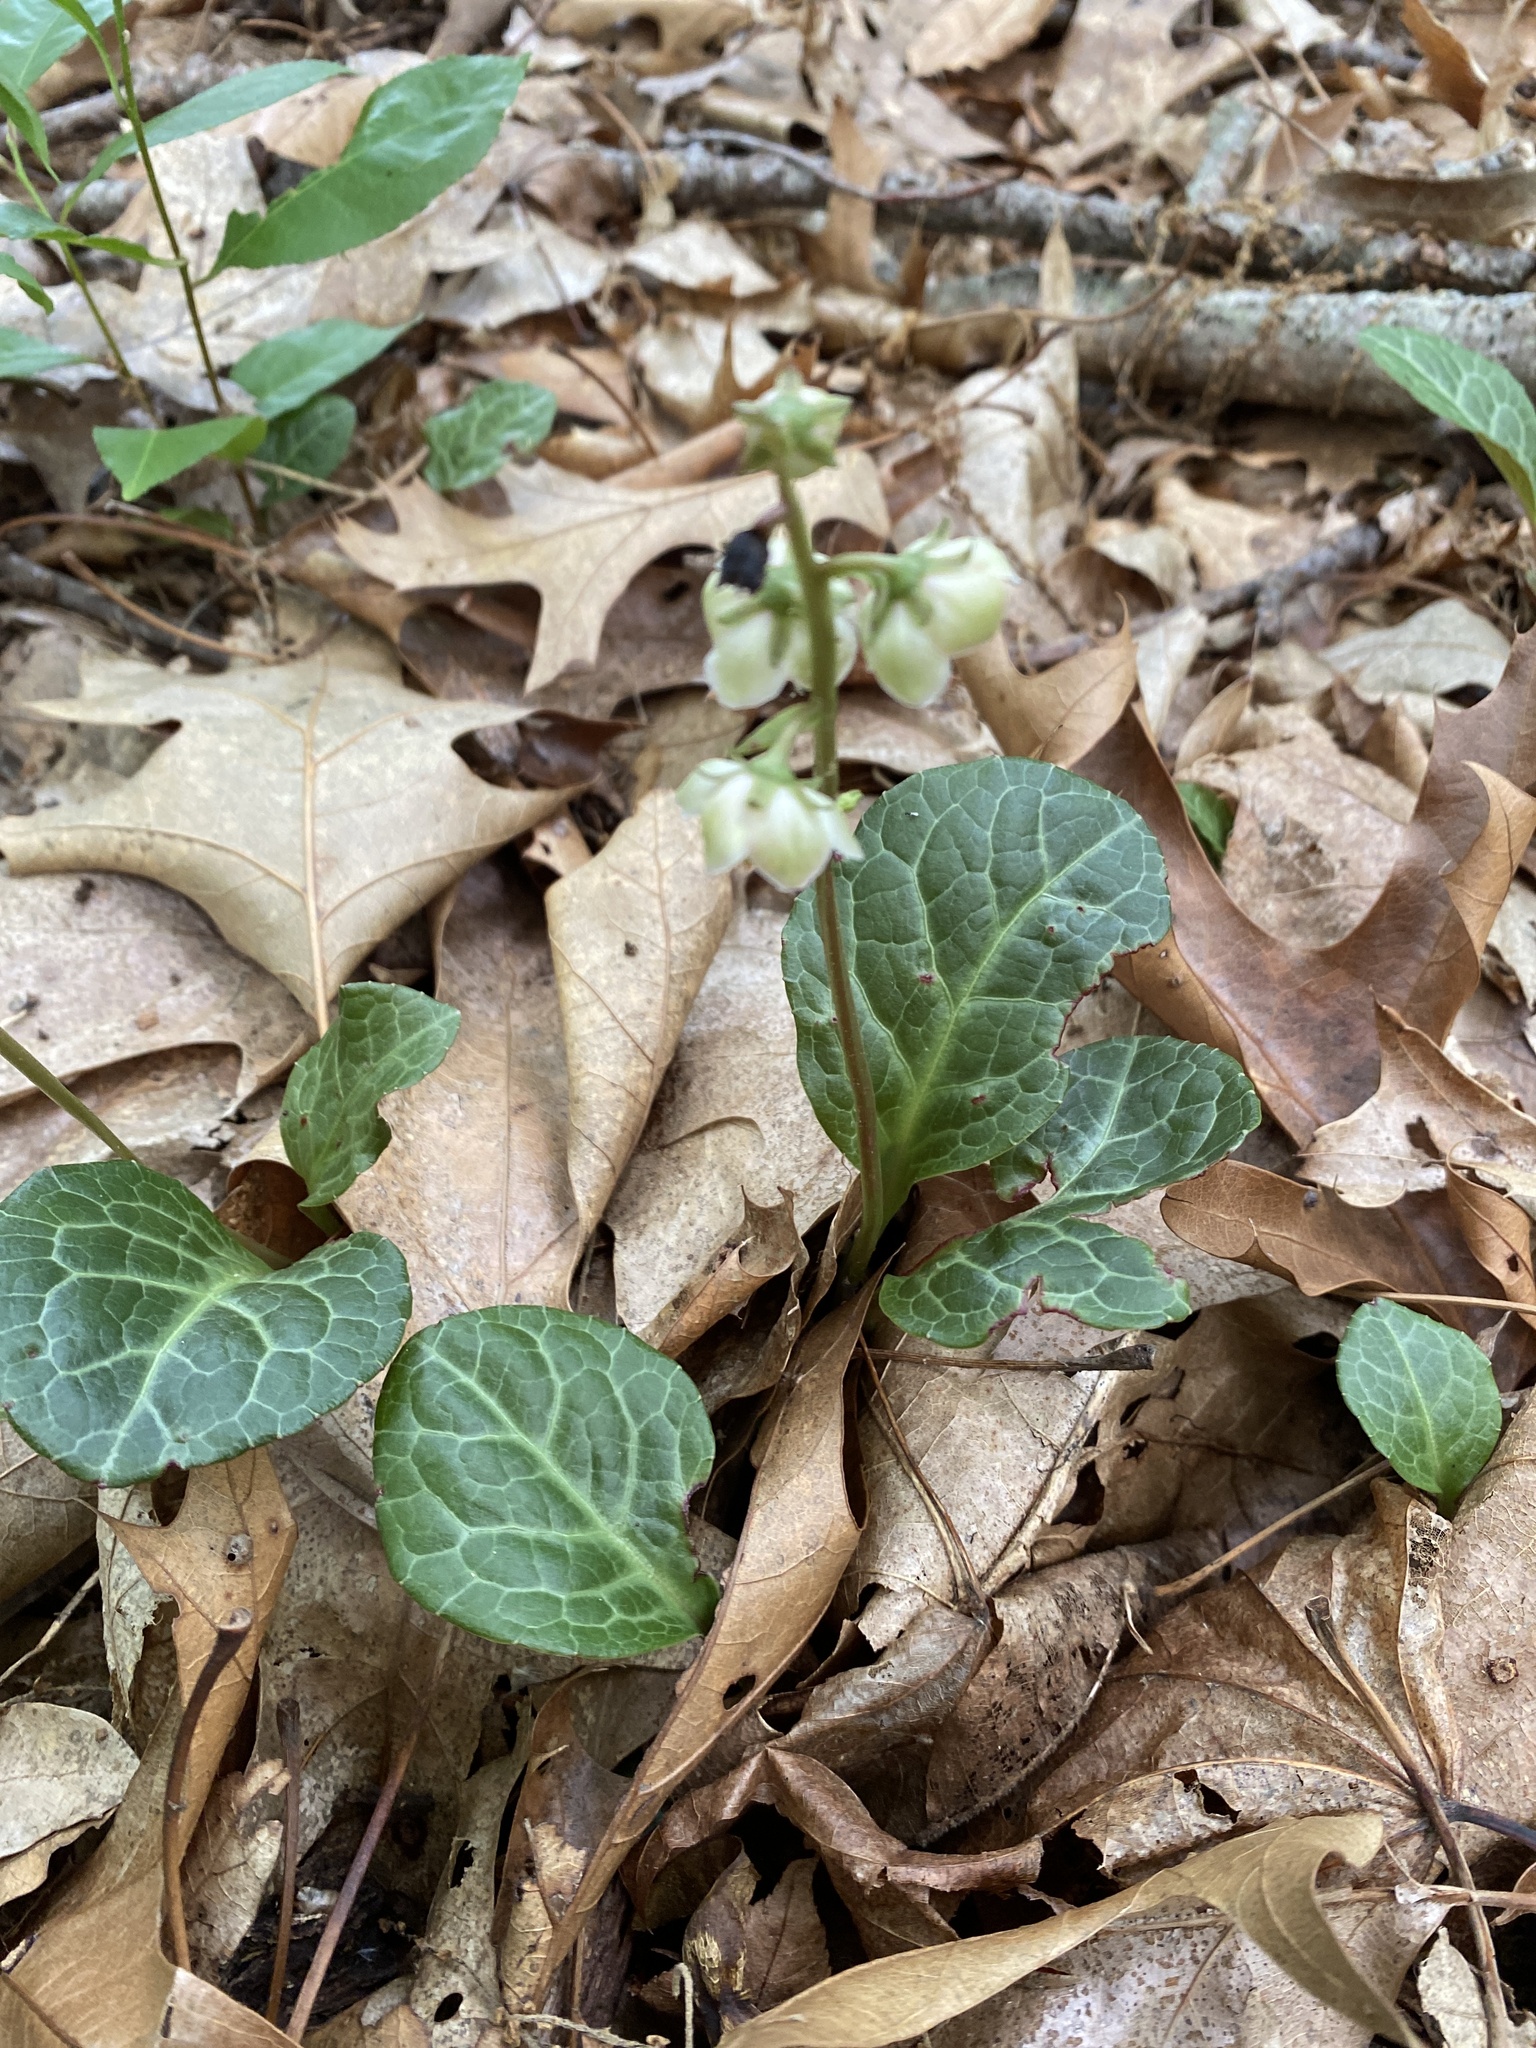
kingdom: Plantae
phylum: Tracheophyta
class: Magnoliopsida
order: Ericales
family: Ericaceae
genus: Pyrola
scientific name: Pyrola americana
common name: American wintergreen
